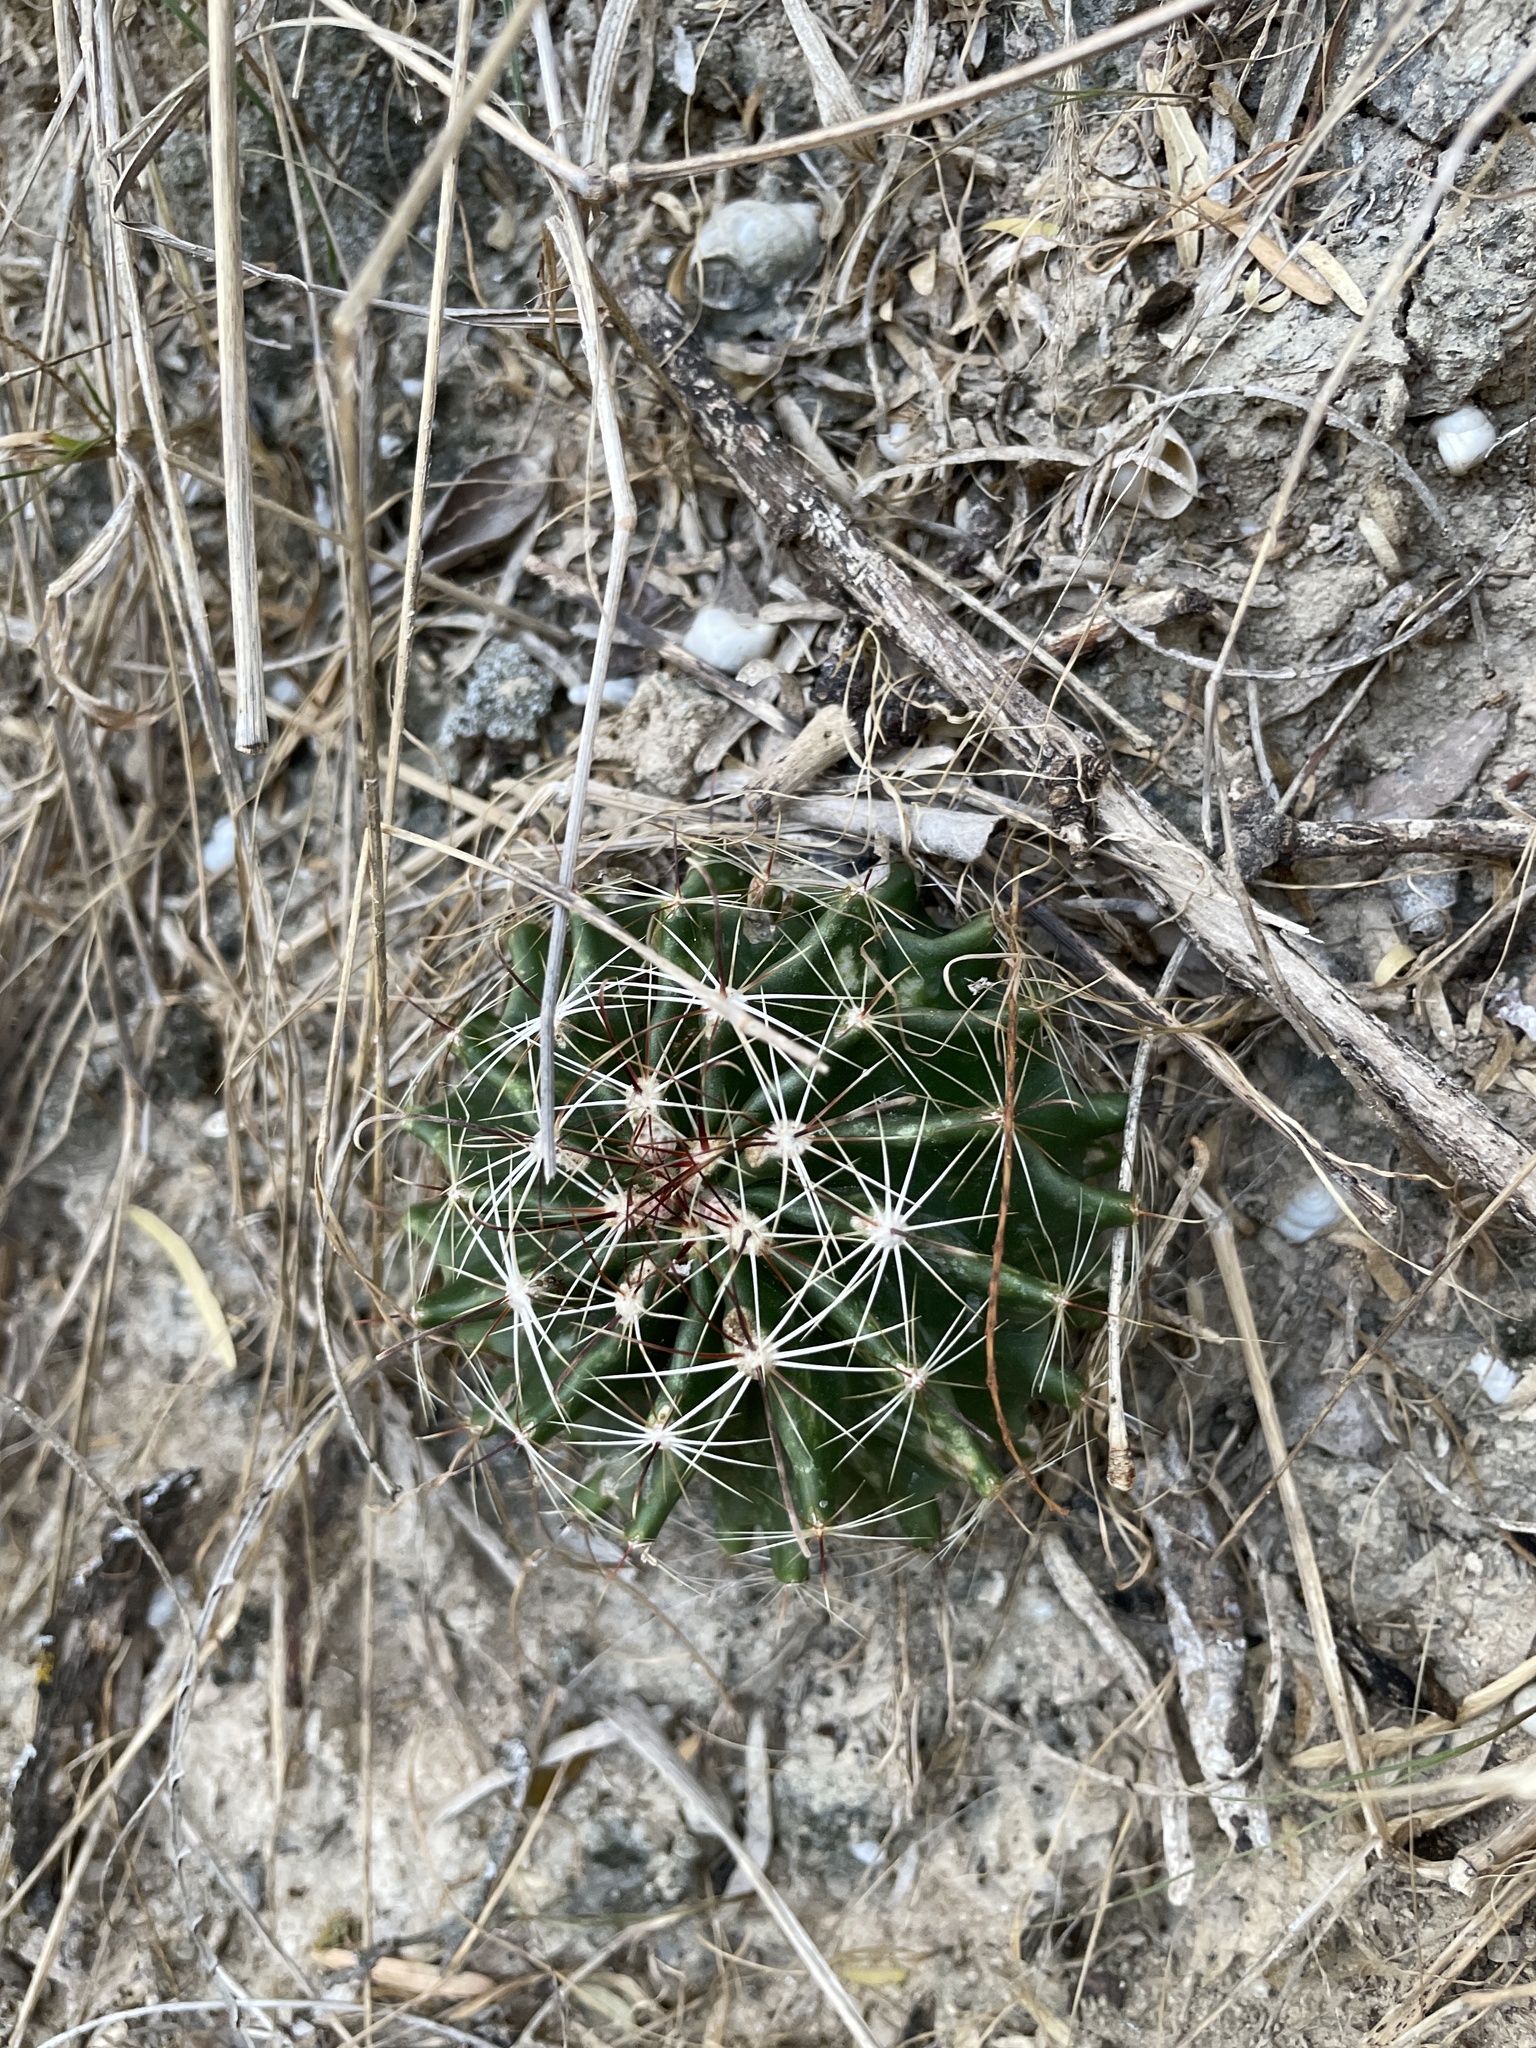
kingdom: Plantae
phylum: Tracheophyta
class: Magnoliopsida
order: Caryophyllales
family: Cactaceae
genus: Thelocactus
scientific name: Thelocactus setispinus
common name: Miniature barrel cactus
